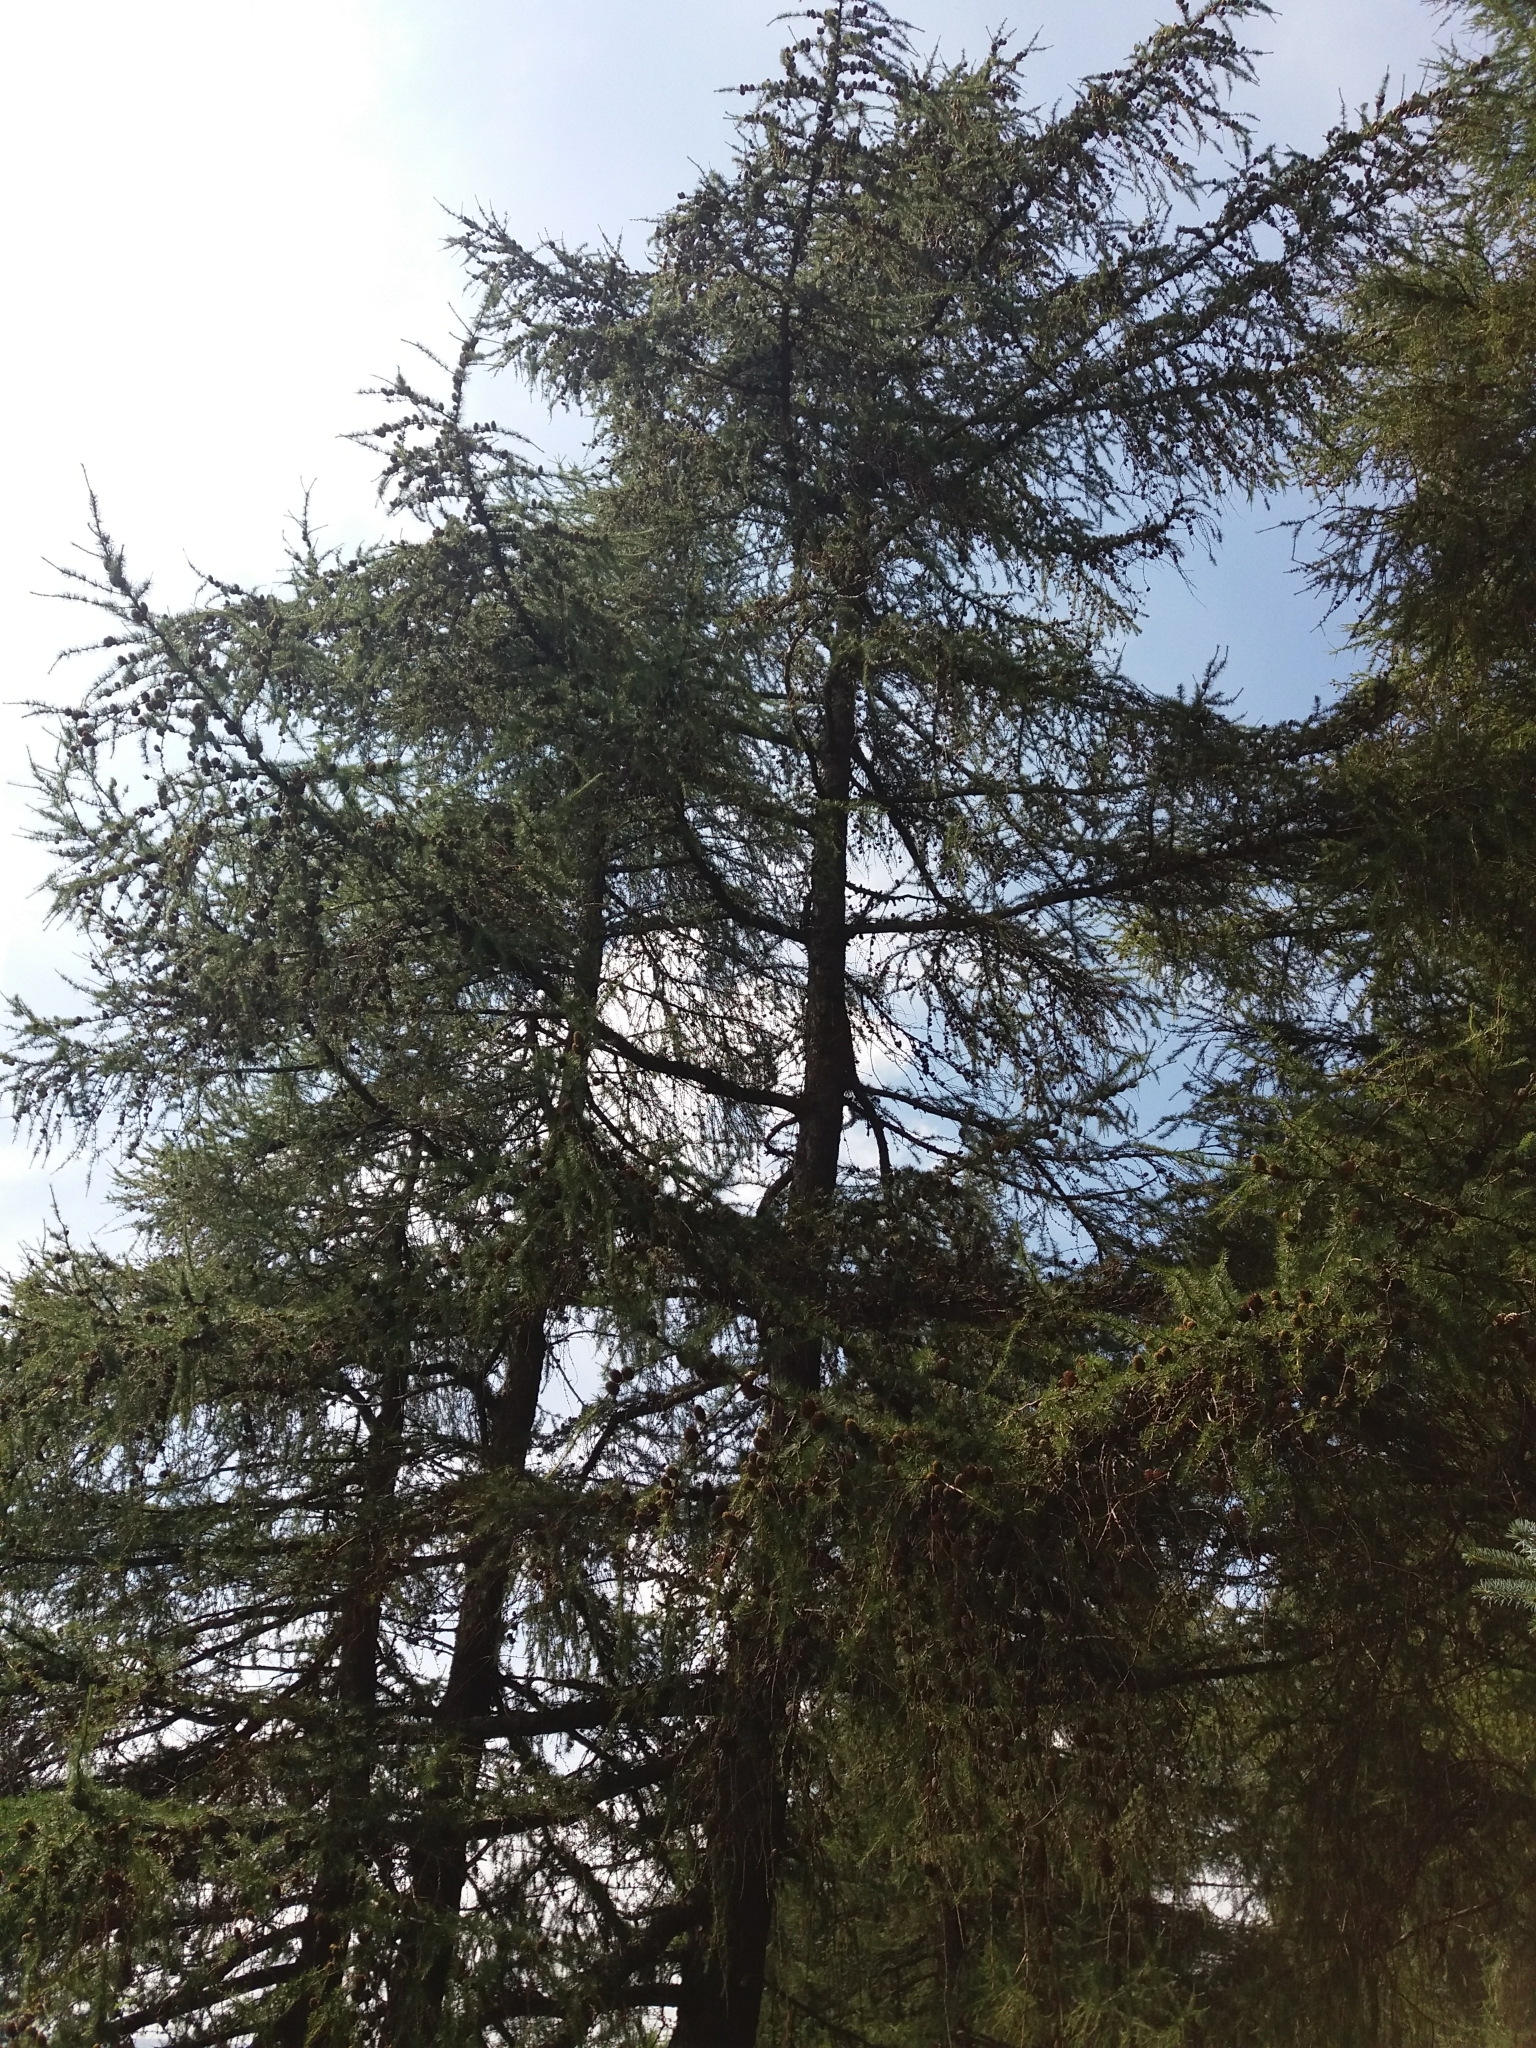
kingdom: Plantae
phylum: Tracheophyta
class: Pinopsida
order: Pinales
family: Pinaceae
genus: Larix
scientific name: Larix decidua
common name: European larch
